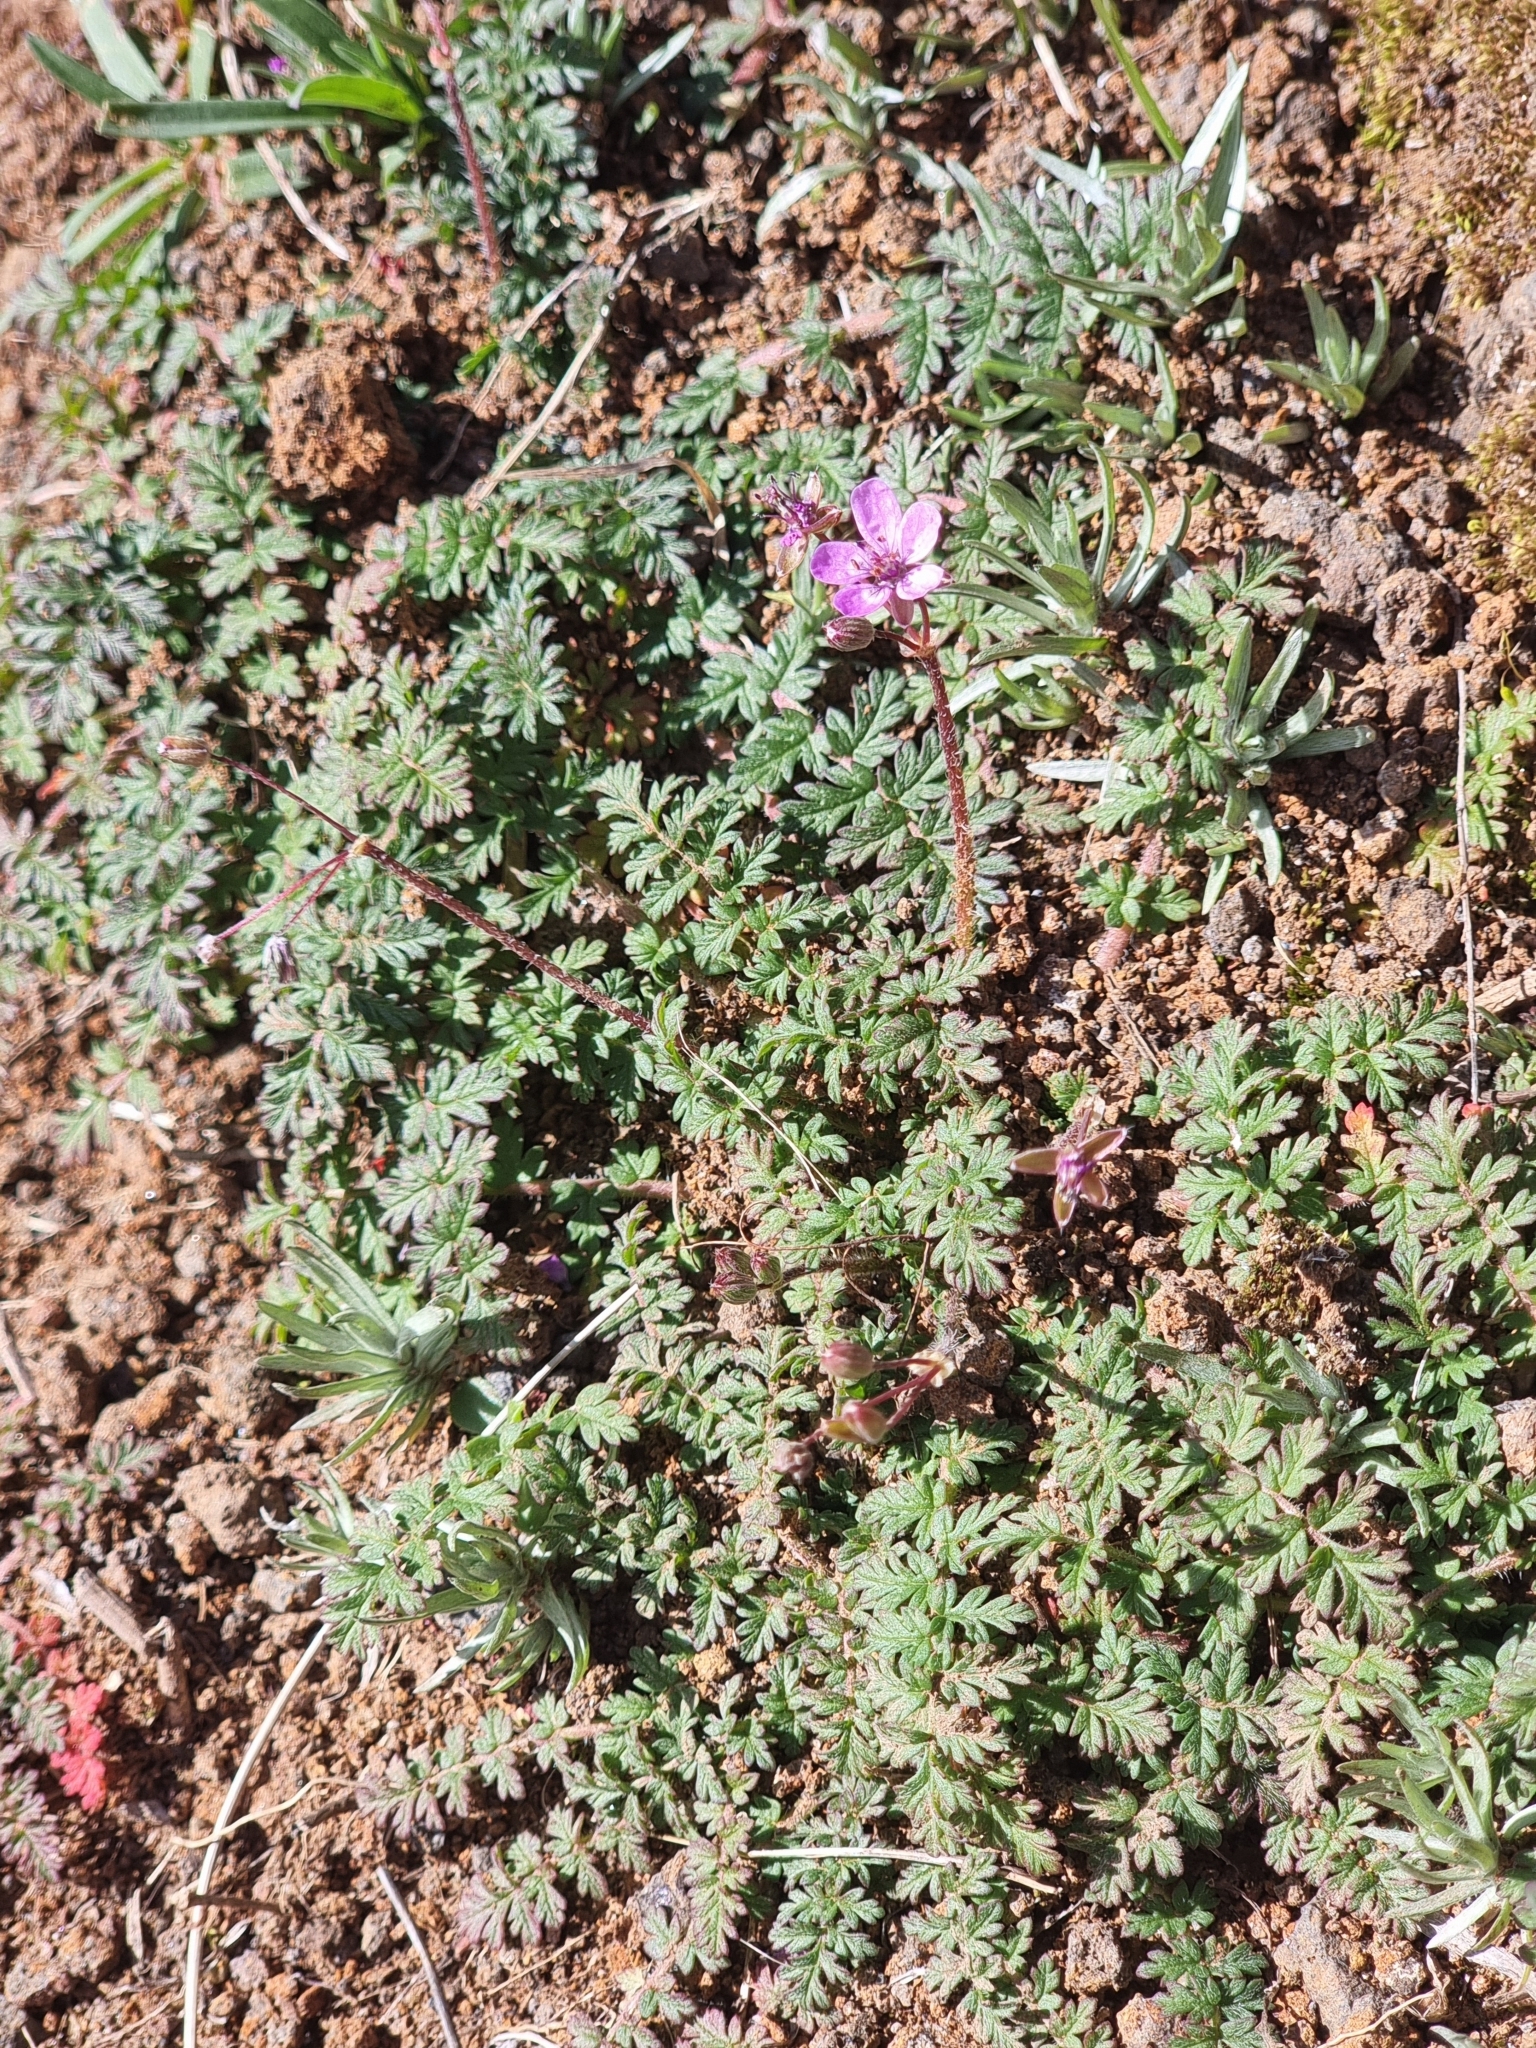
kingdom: Plantae
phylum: Tracheophyta
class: Magnoliopsida
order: Geraniales
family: Geraniaceae
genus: Erodium
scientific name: Erodium cicutarium
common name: Common stork's-bill
